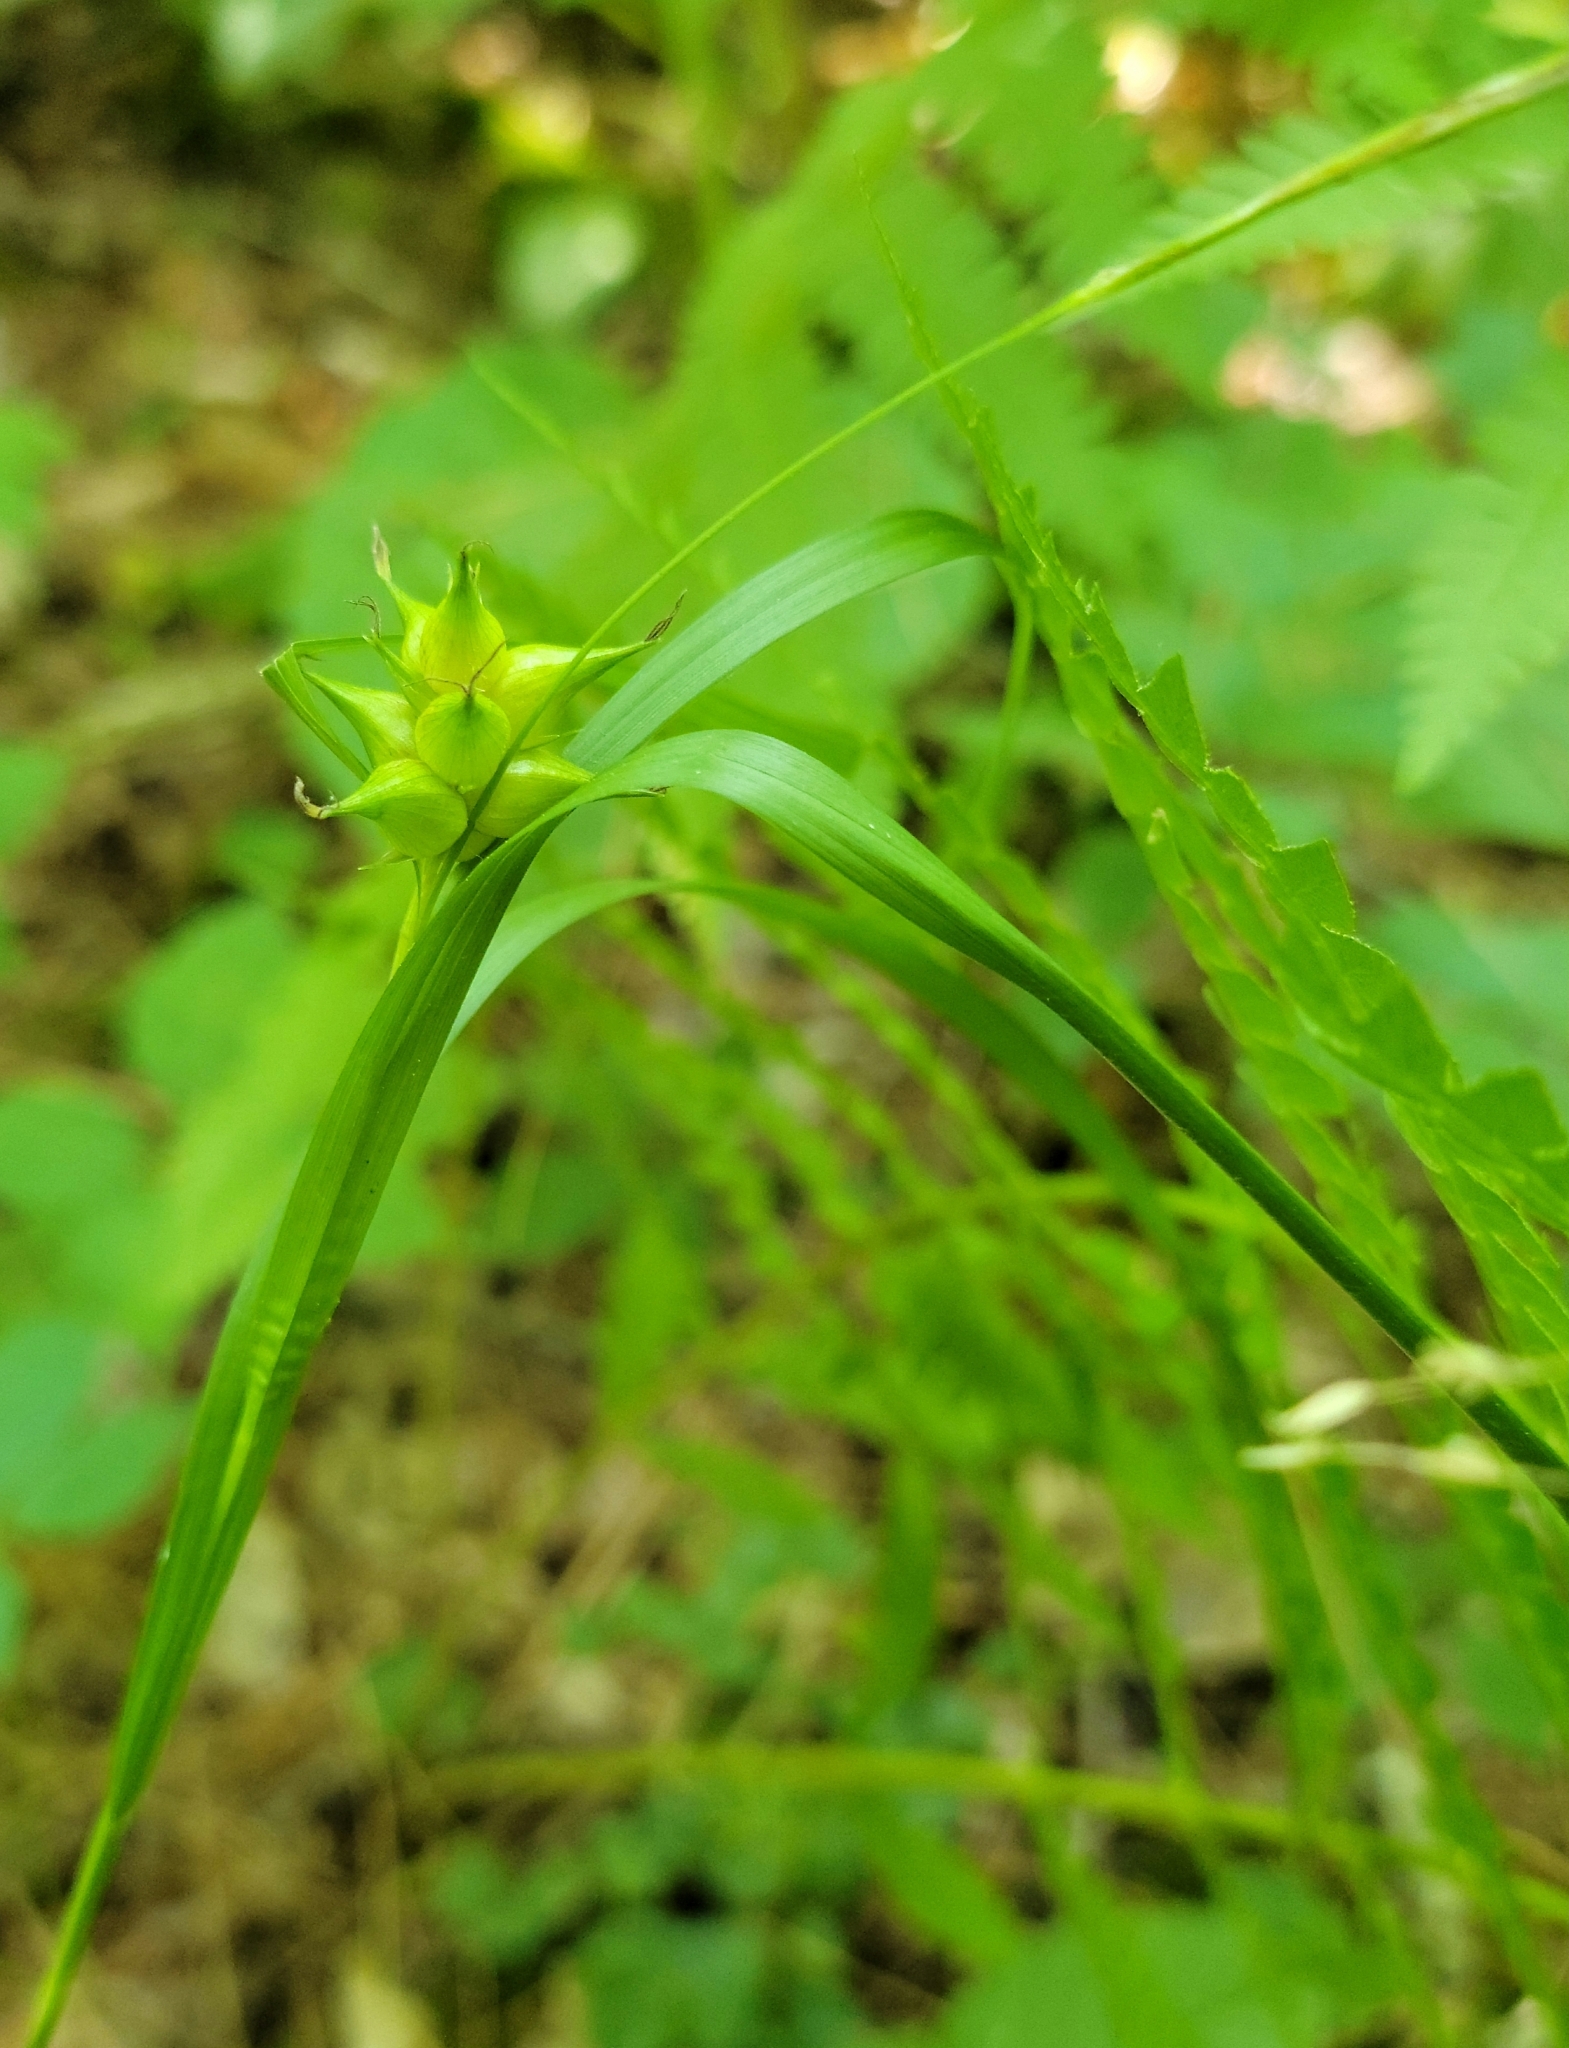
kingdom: Plantae
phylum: Tracheophyta
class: Liliopsida
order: Poales
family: Cyperaceae
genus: Carex
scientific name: Carex intumescens
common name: Greater bladder sedge
